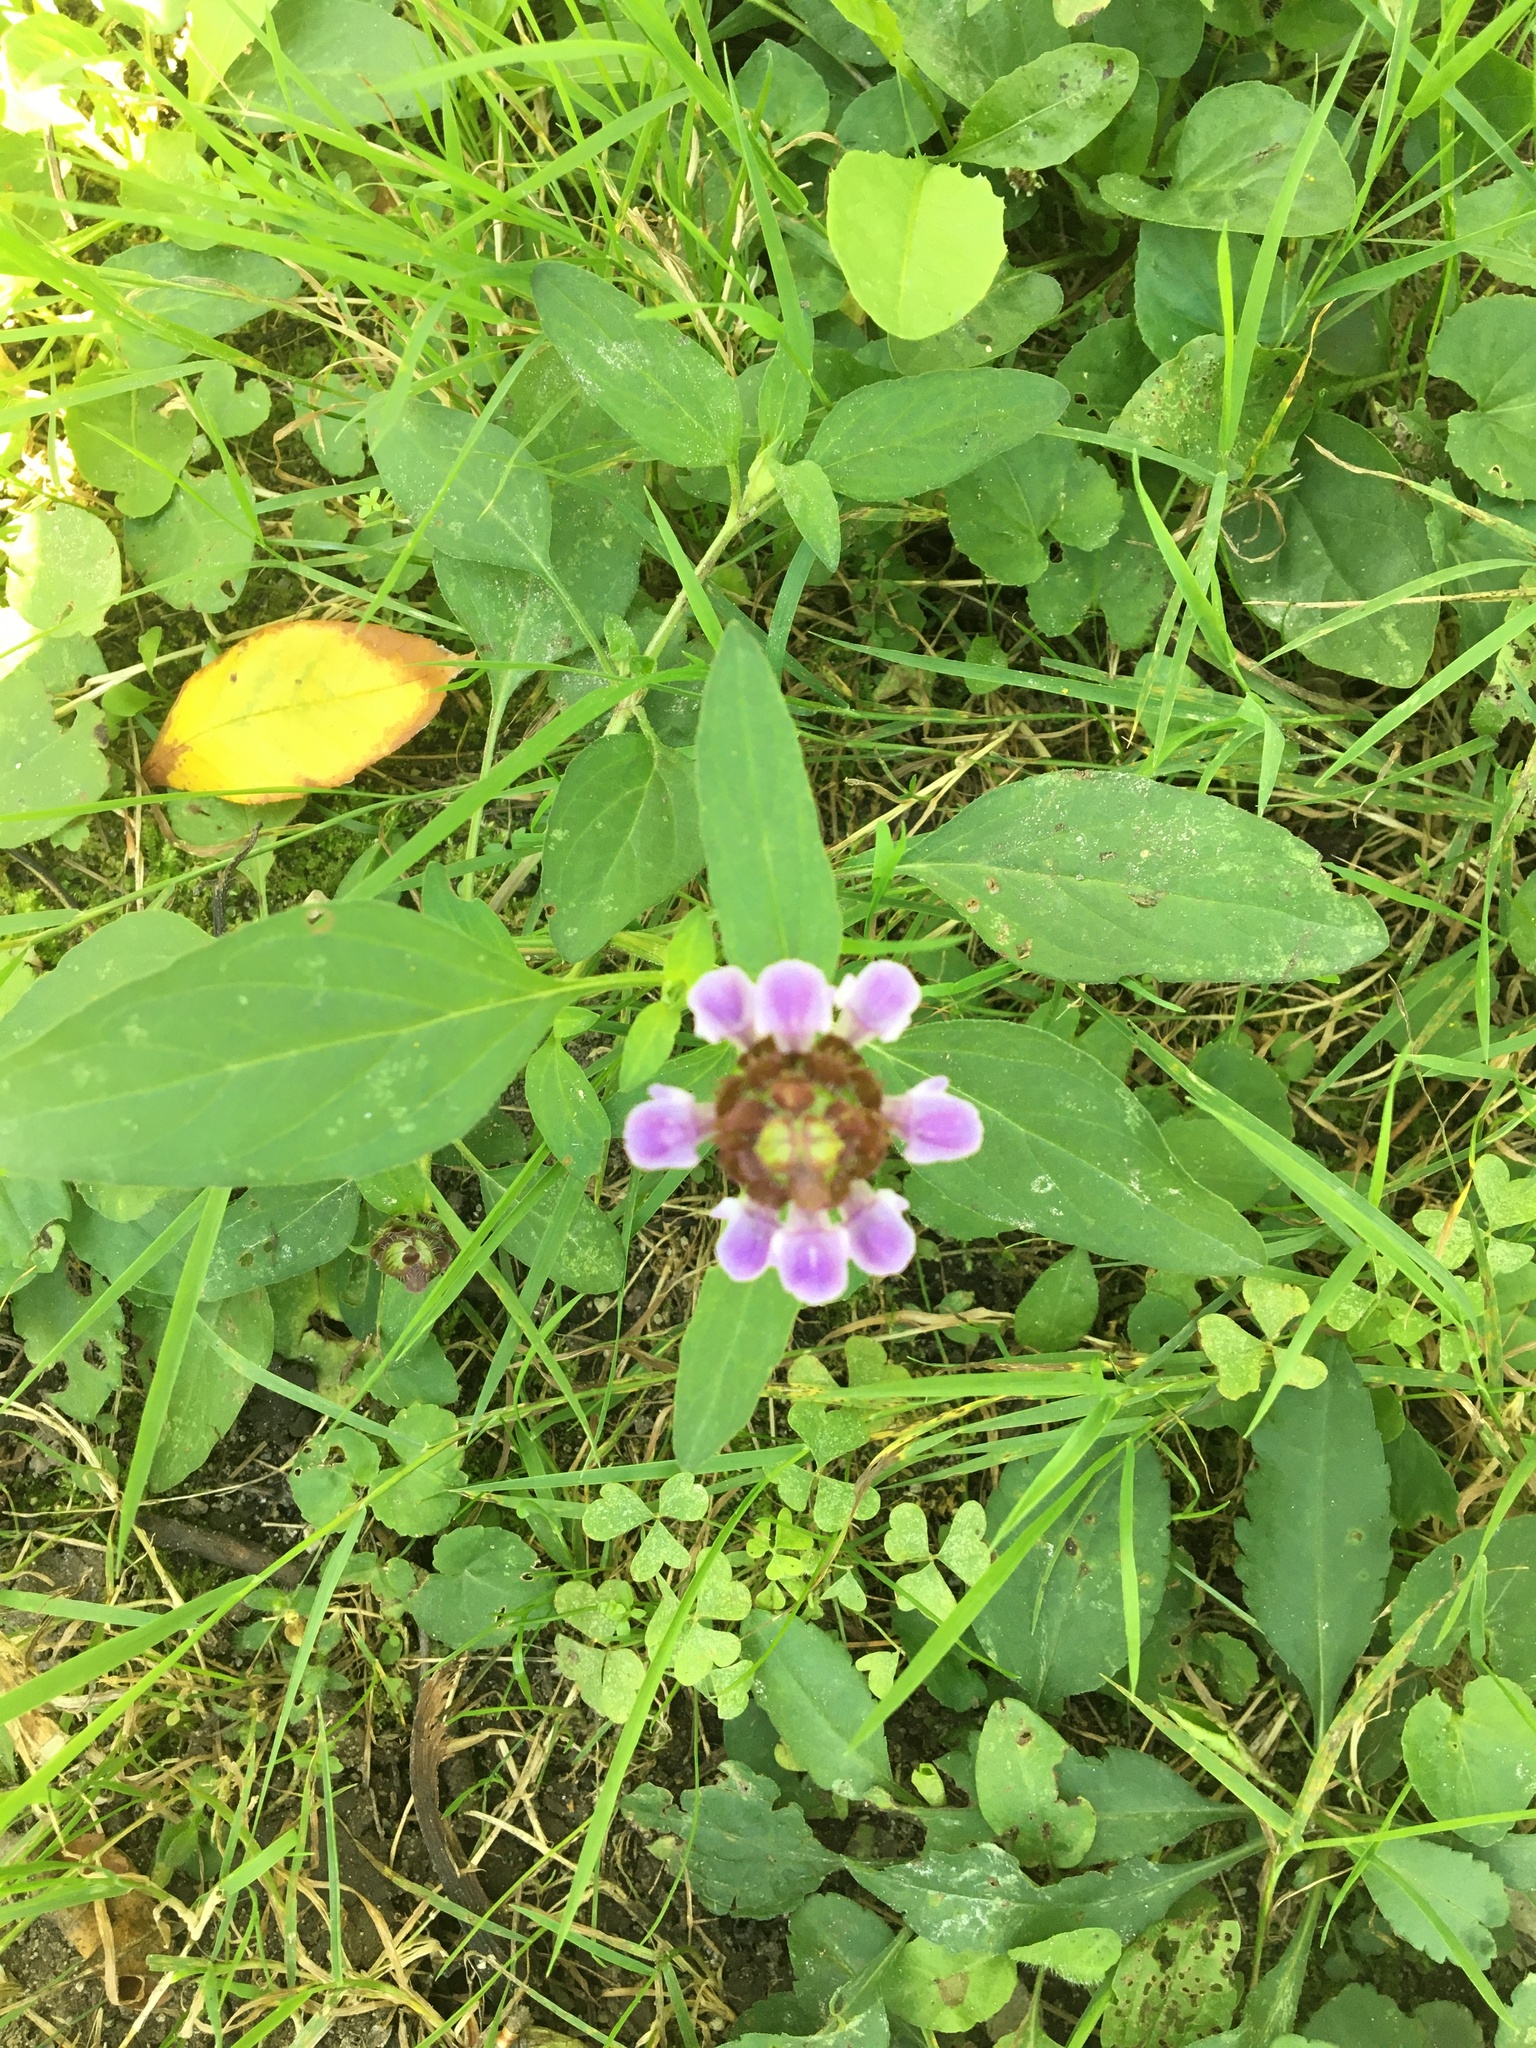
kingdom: Plantae
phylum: Tracheophyta
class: Magnoliopsida
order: Lamiales
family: Lamiaceae
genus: Prunella
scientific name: Prunella vulgaris
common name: Heal-all
